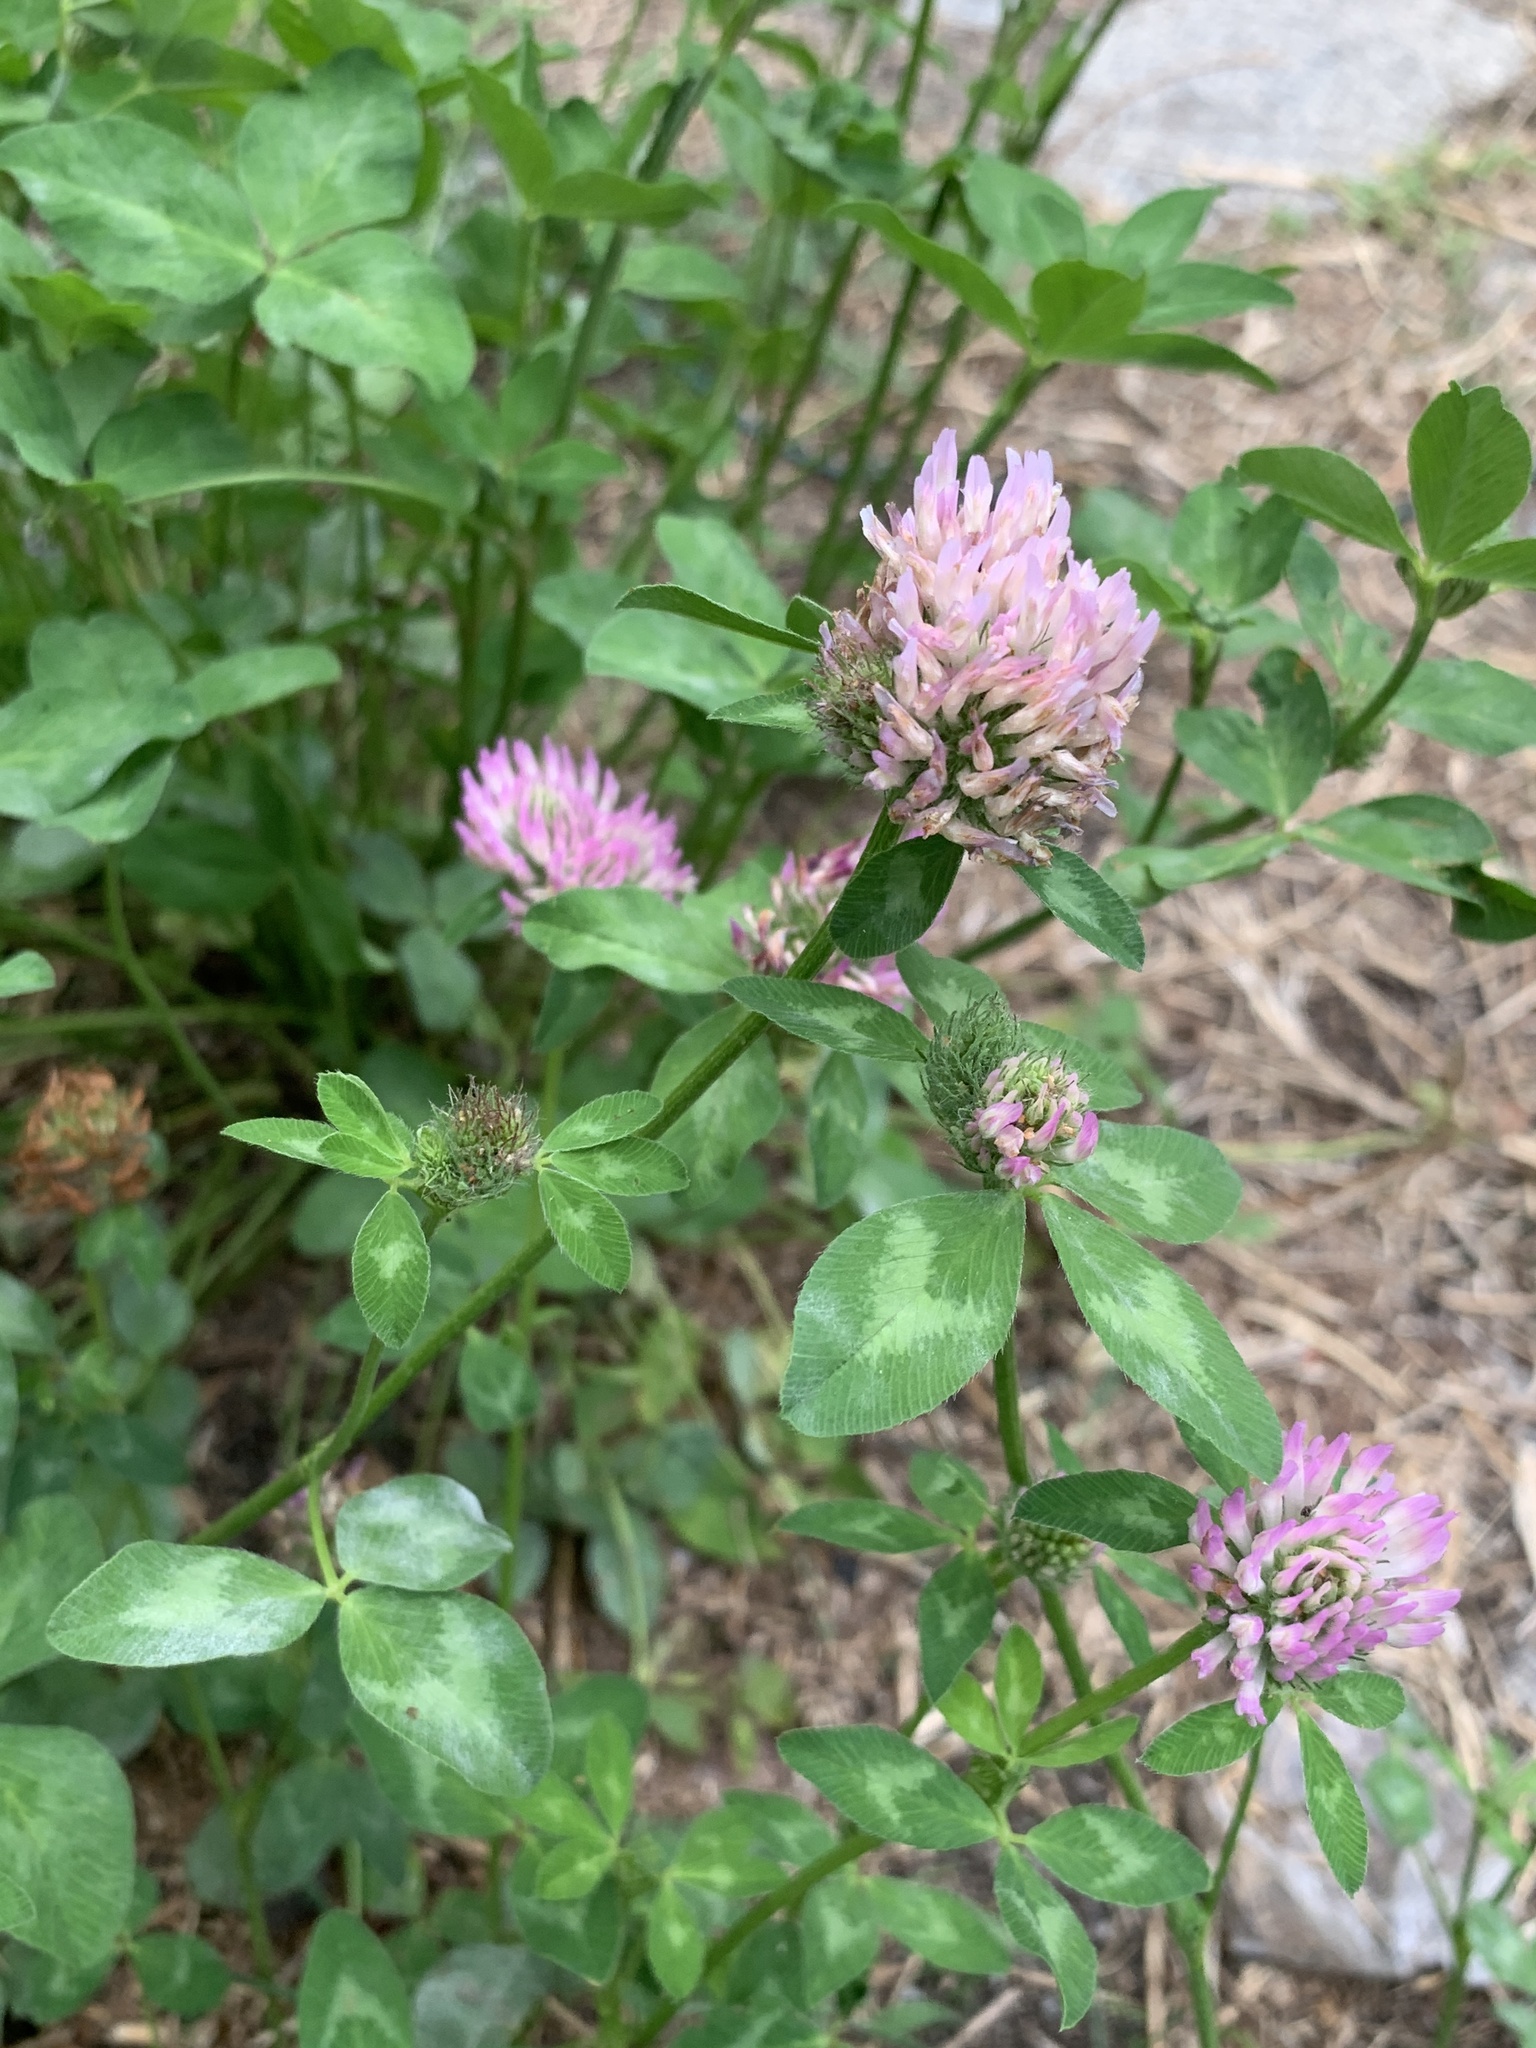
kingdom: Plantae
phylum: Tracheophyta
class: Magnoliopsida
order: Fabales
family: Fabaceae
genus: Trifolium
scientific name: Trifolium pratense
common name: Red clover
